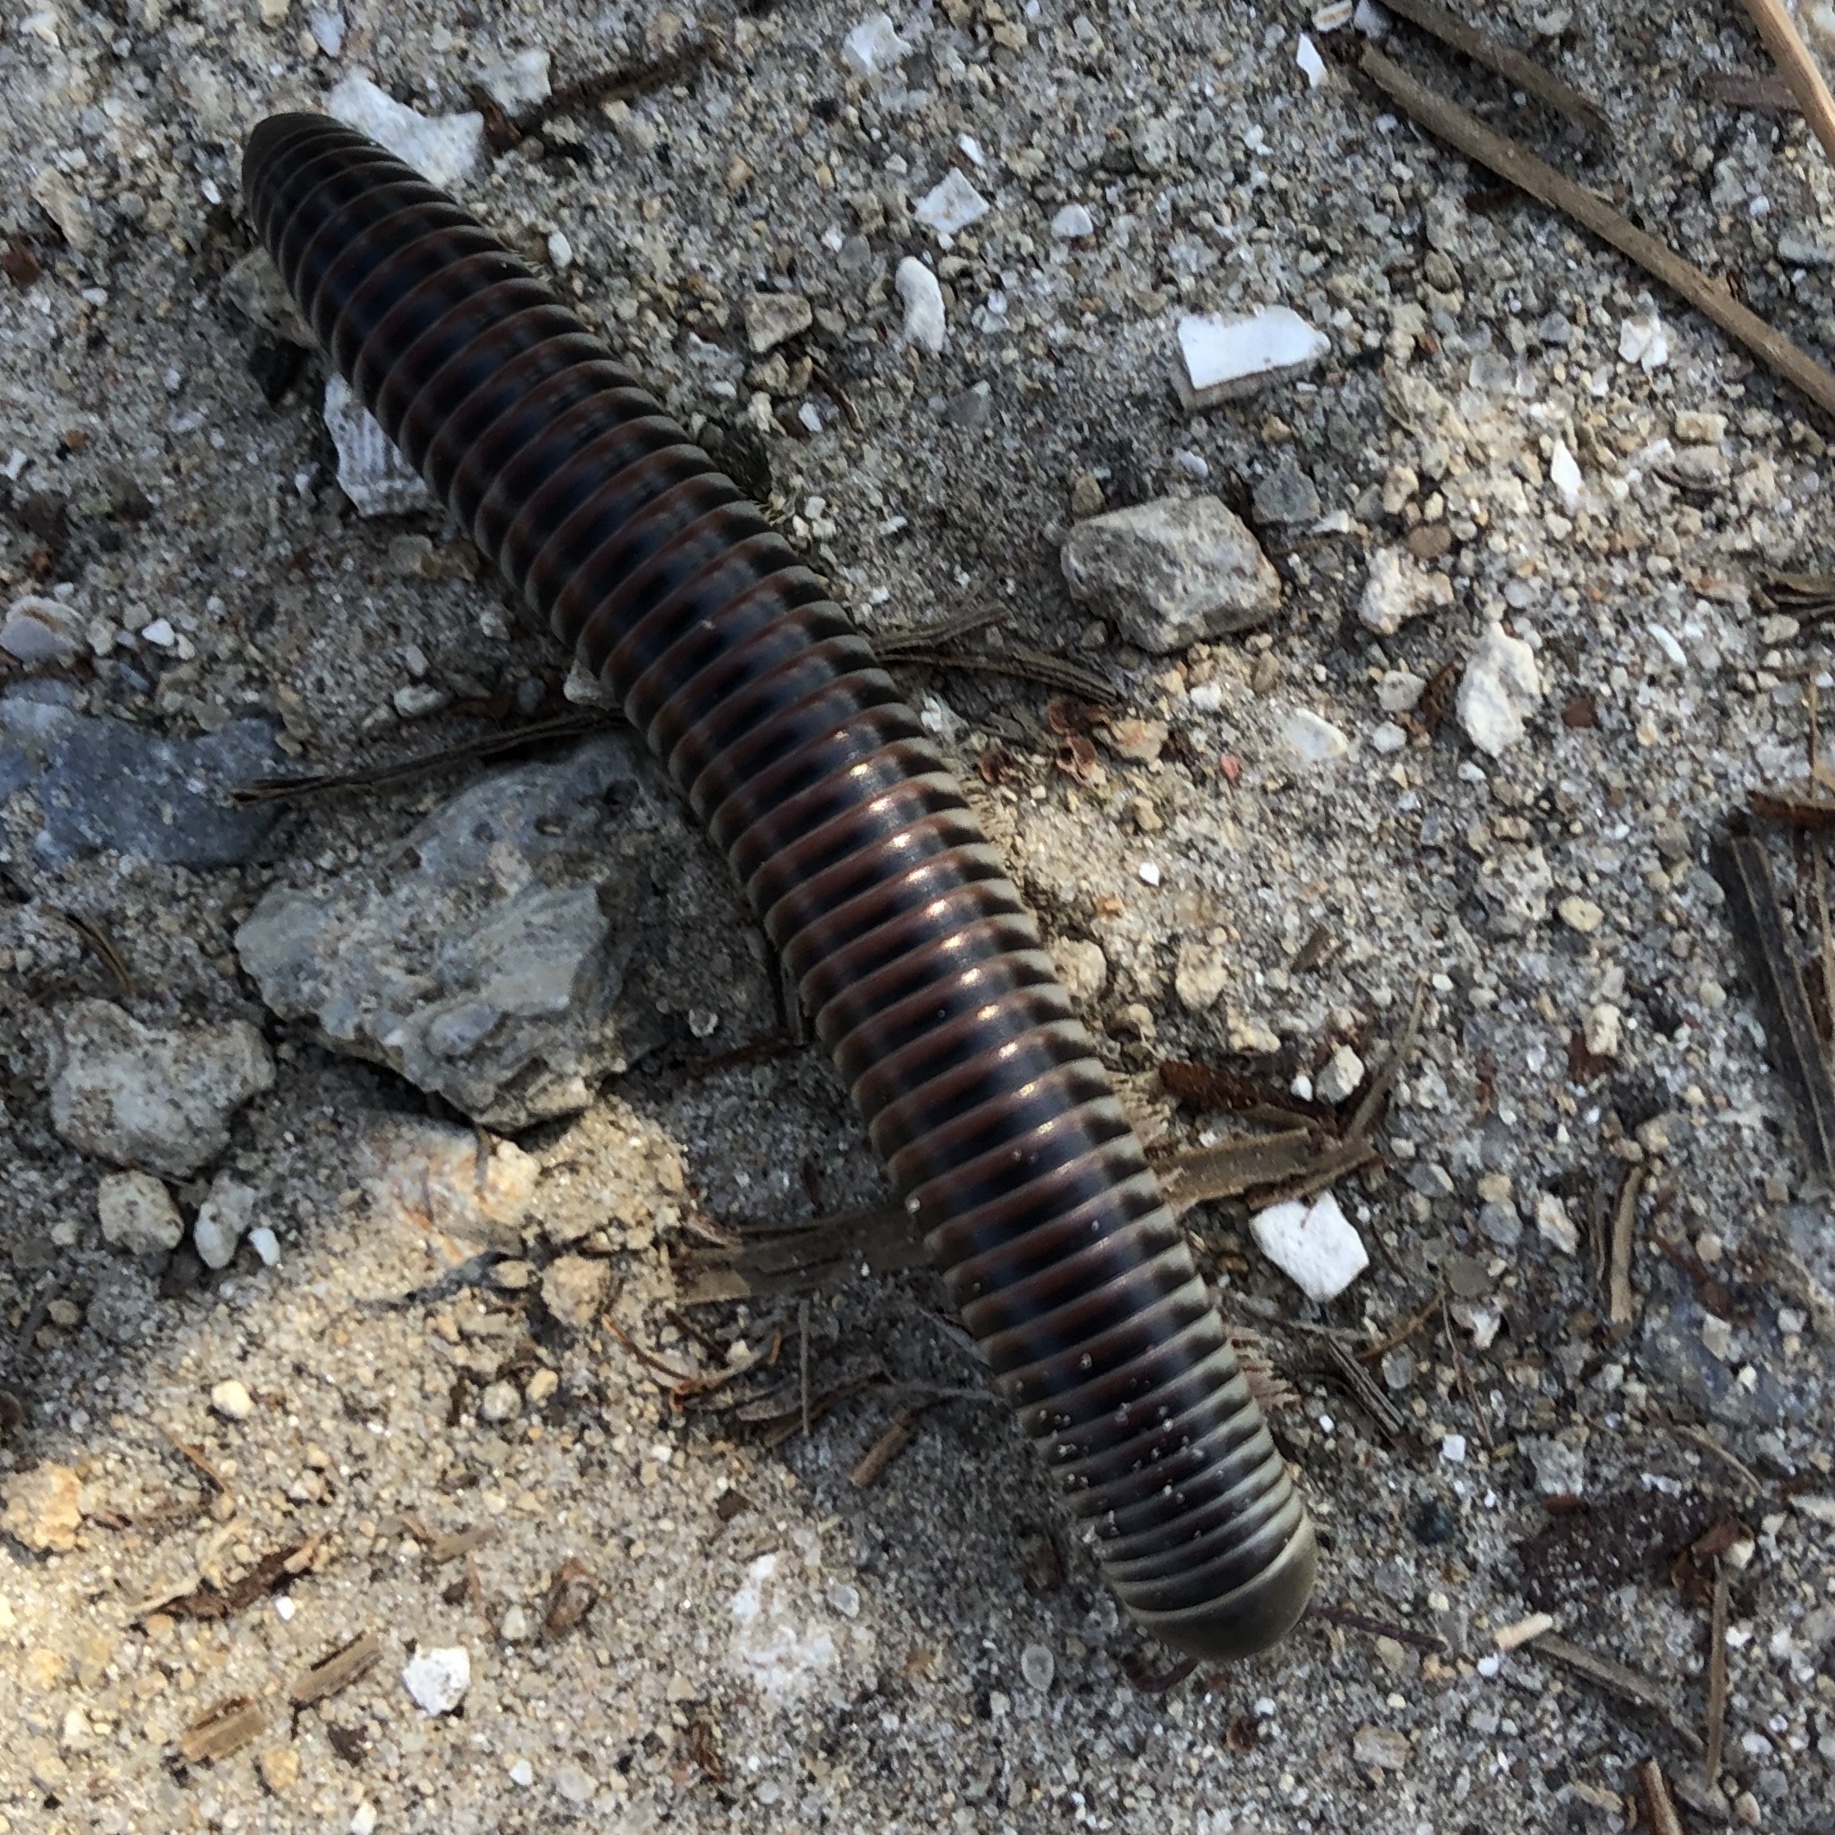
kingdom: Animalia
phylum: Arthropoda
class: Diplopoda
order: Spirobolida
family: Spirobolidae
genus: Chicobolus
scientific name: Chicobolus spinigerus
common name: Florida ivory millipede
